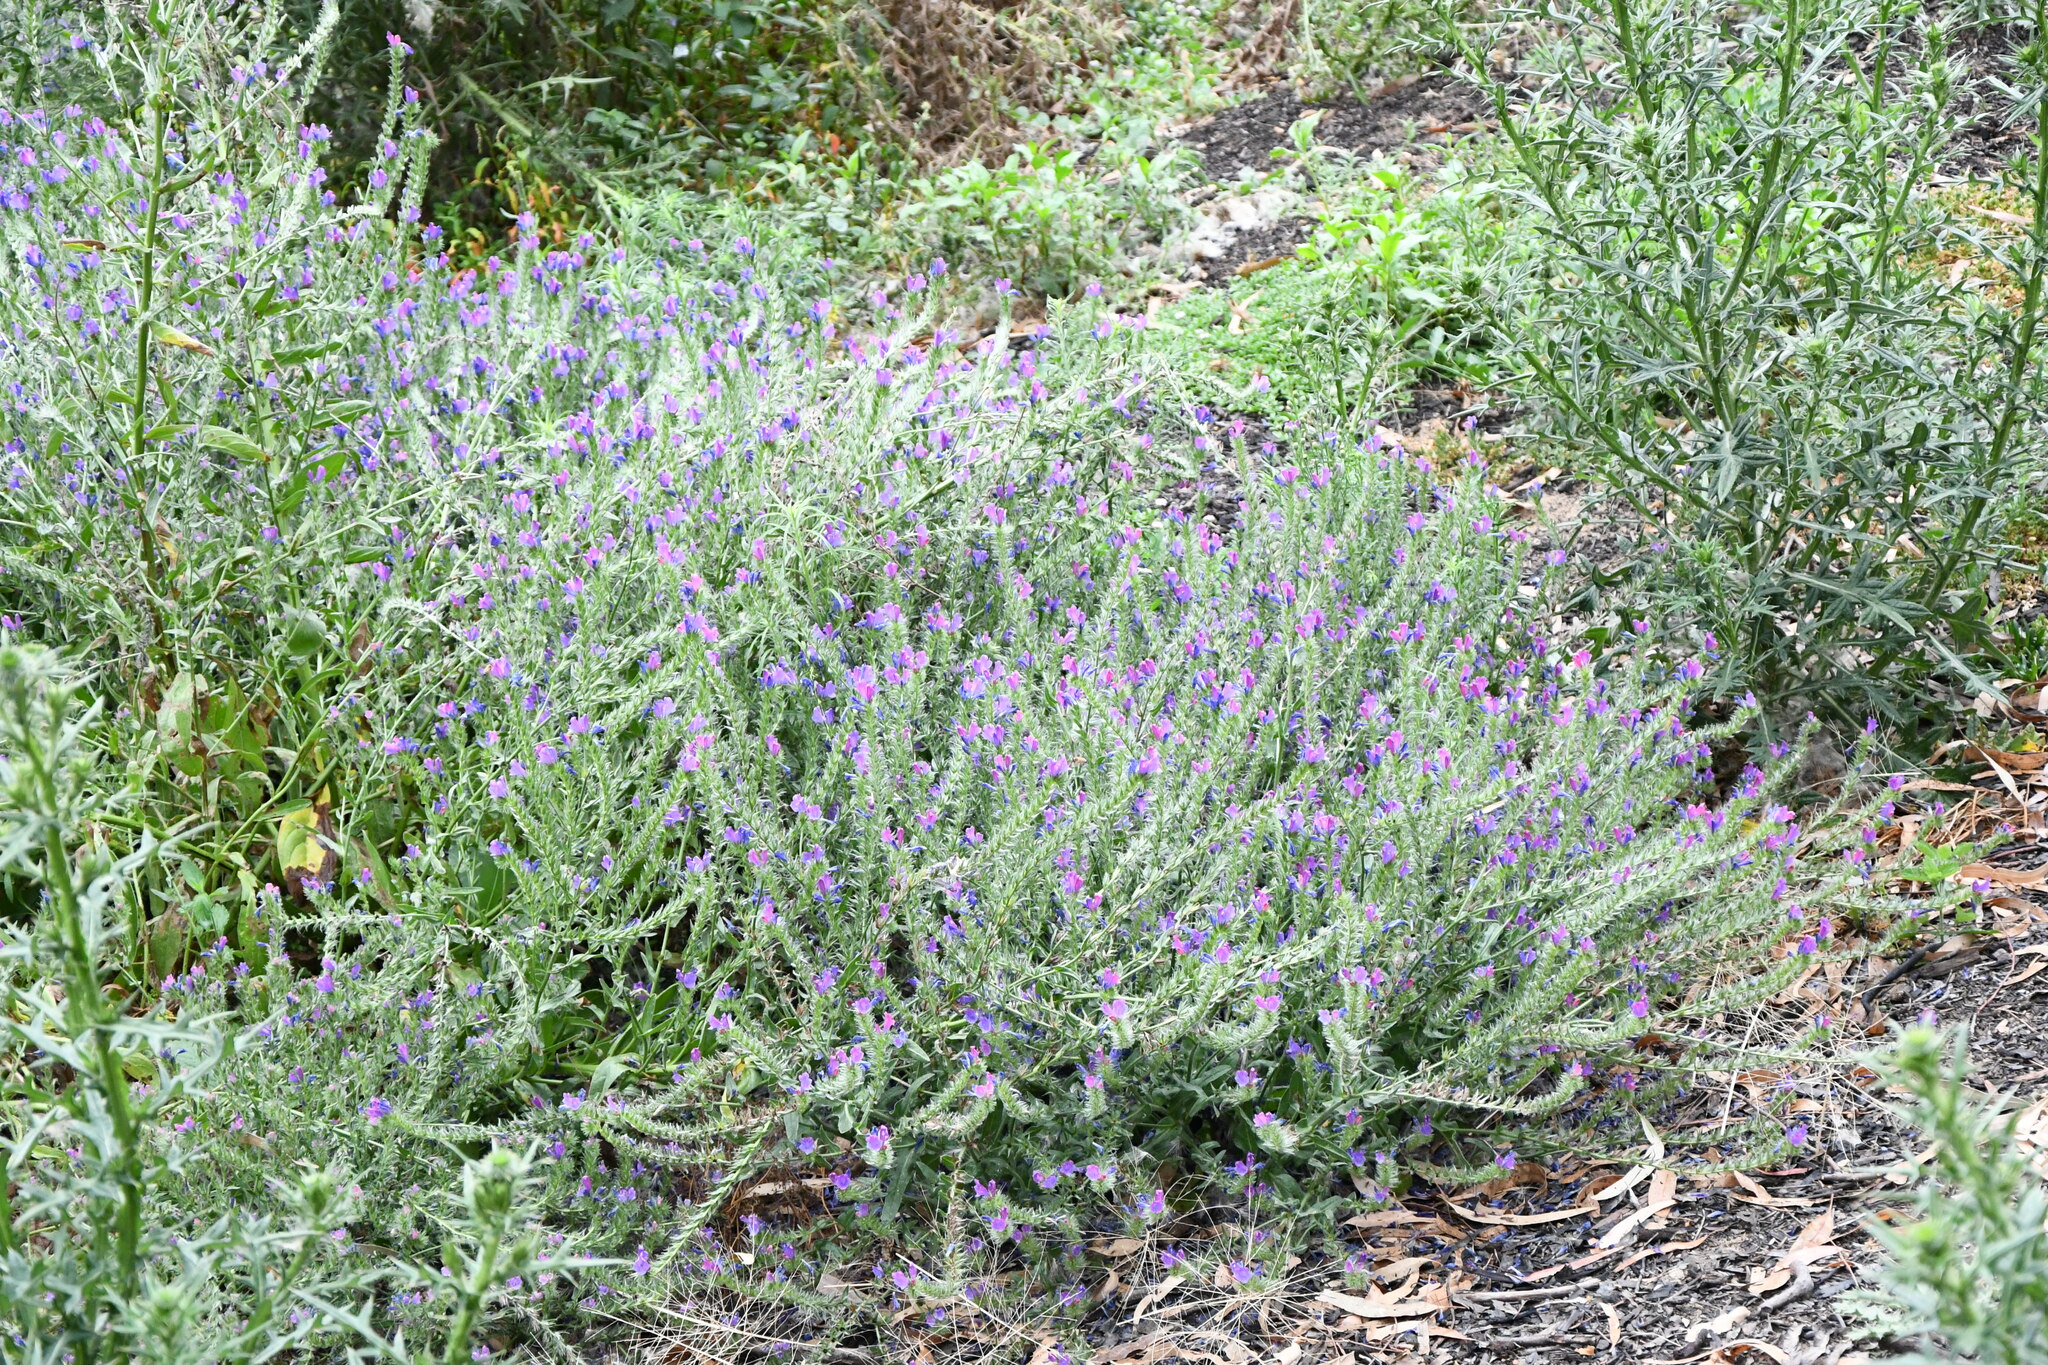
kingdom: Plantae
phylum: Tracheophyta
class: Magnoliopsida
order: Boraginales
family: Boraginaceae
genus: Echium
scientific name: Echium plantagineum
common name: Purple viper's-bugloss
